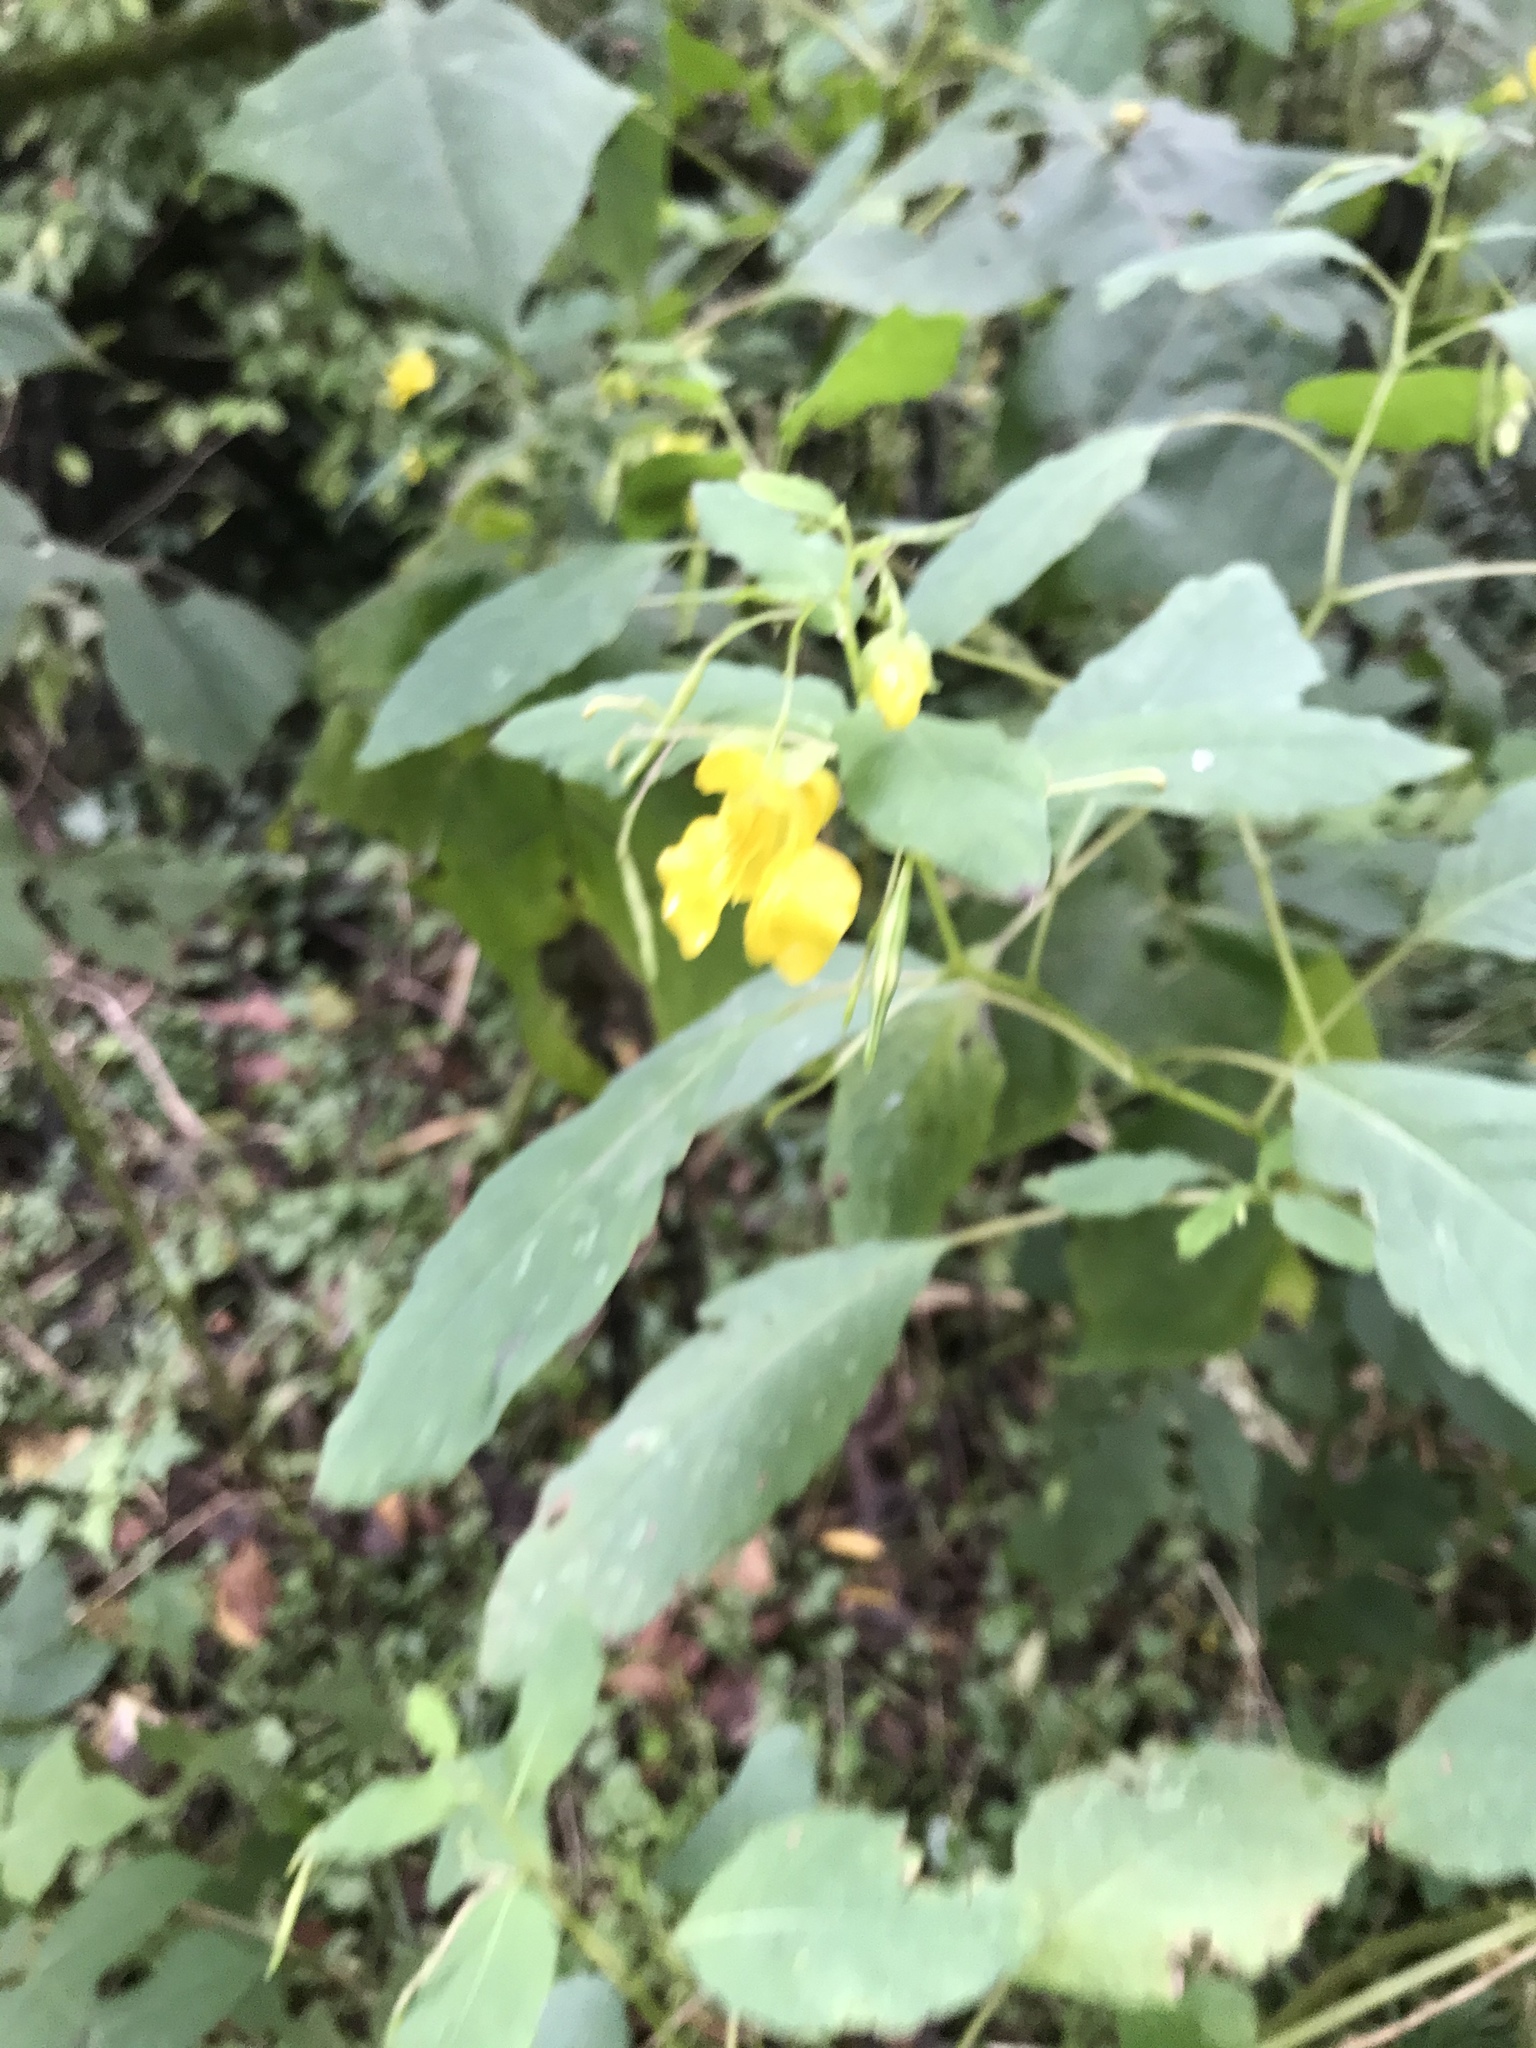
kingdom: Plantae
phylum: Tracheophyta
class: Magnoliopsida
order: Ericales
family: Balsaminaceae
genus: Impatiens
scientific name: Impatiens pallida
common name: Pale snapweed
